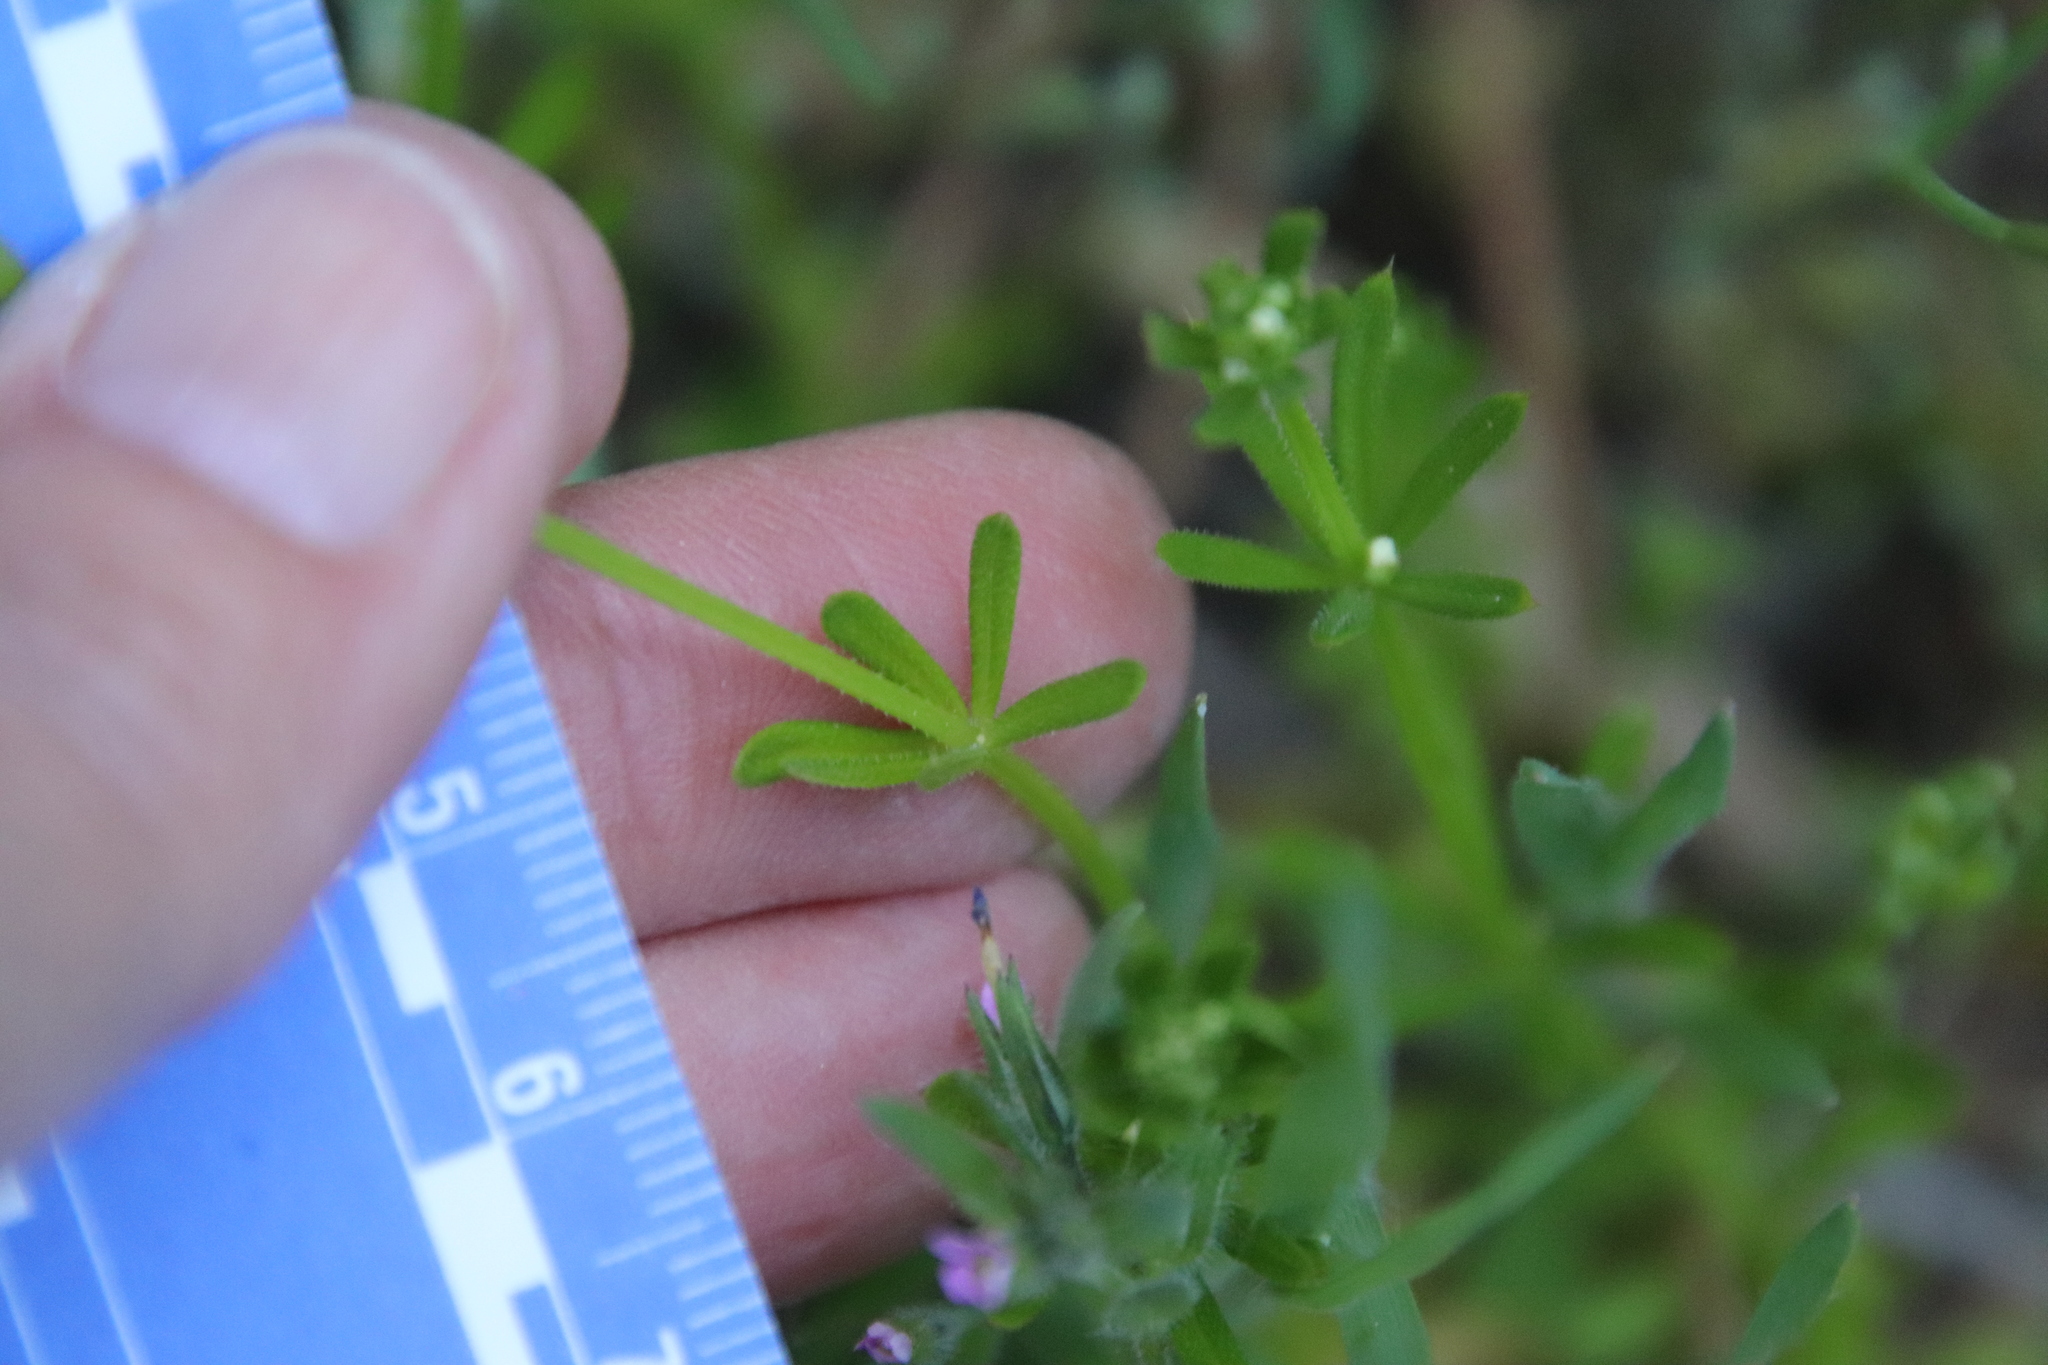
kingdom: Plantae
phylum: Tracheophyta
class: Magnoliopsida
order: Gentianales
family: Rubiaceae
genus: Galium
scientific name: Galium aparine
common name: Cleavers
